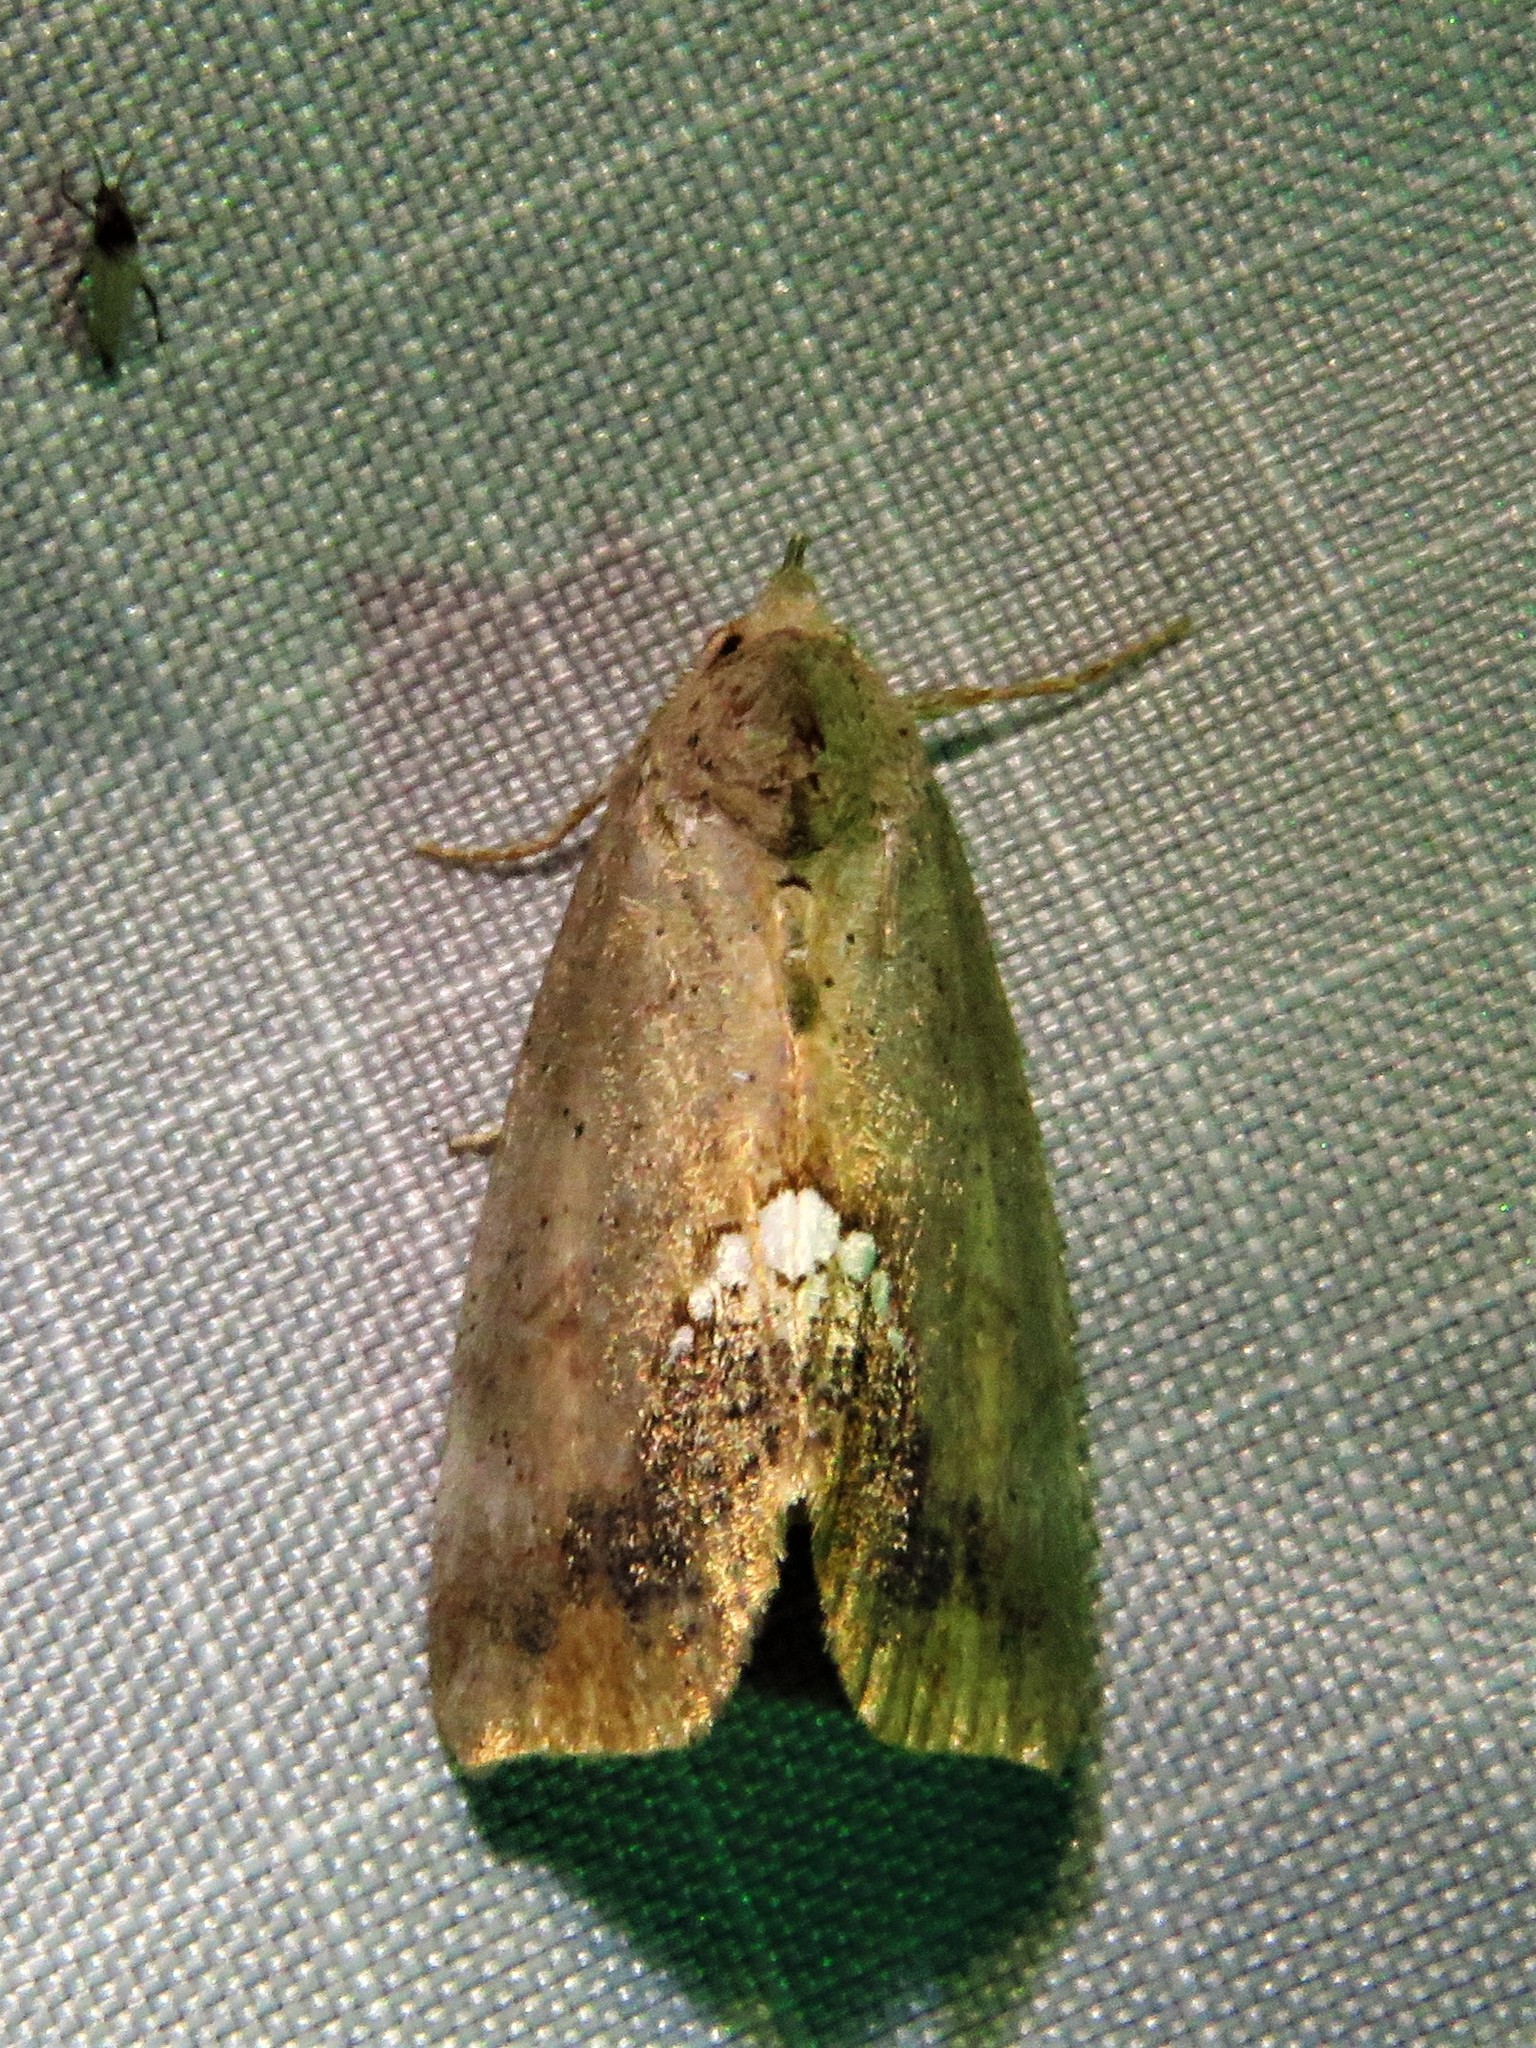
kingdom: Animalia
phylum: Arthropoda
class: Insecta
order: Lepidoptera
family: Erebidae
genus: Hypsoropha
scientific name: Hypsoropha hormos
